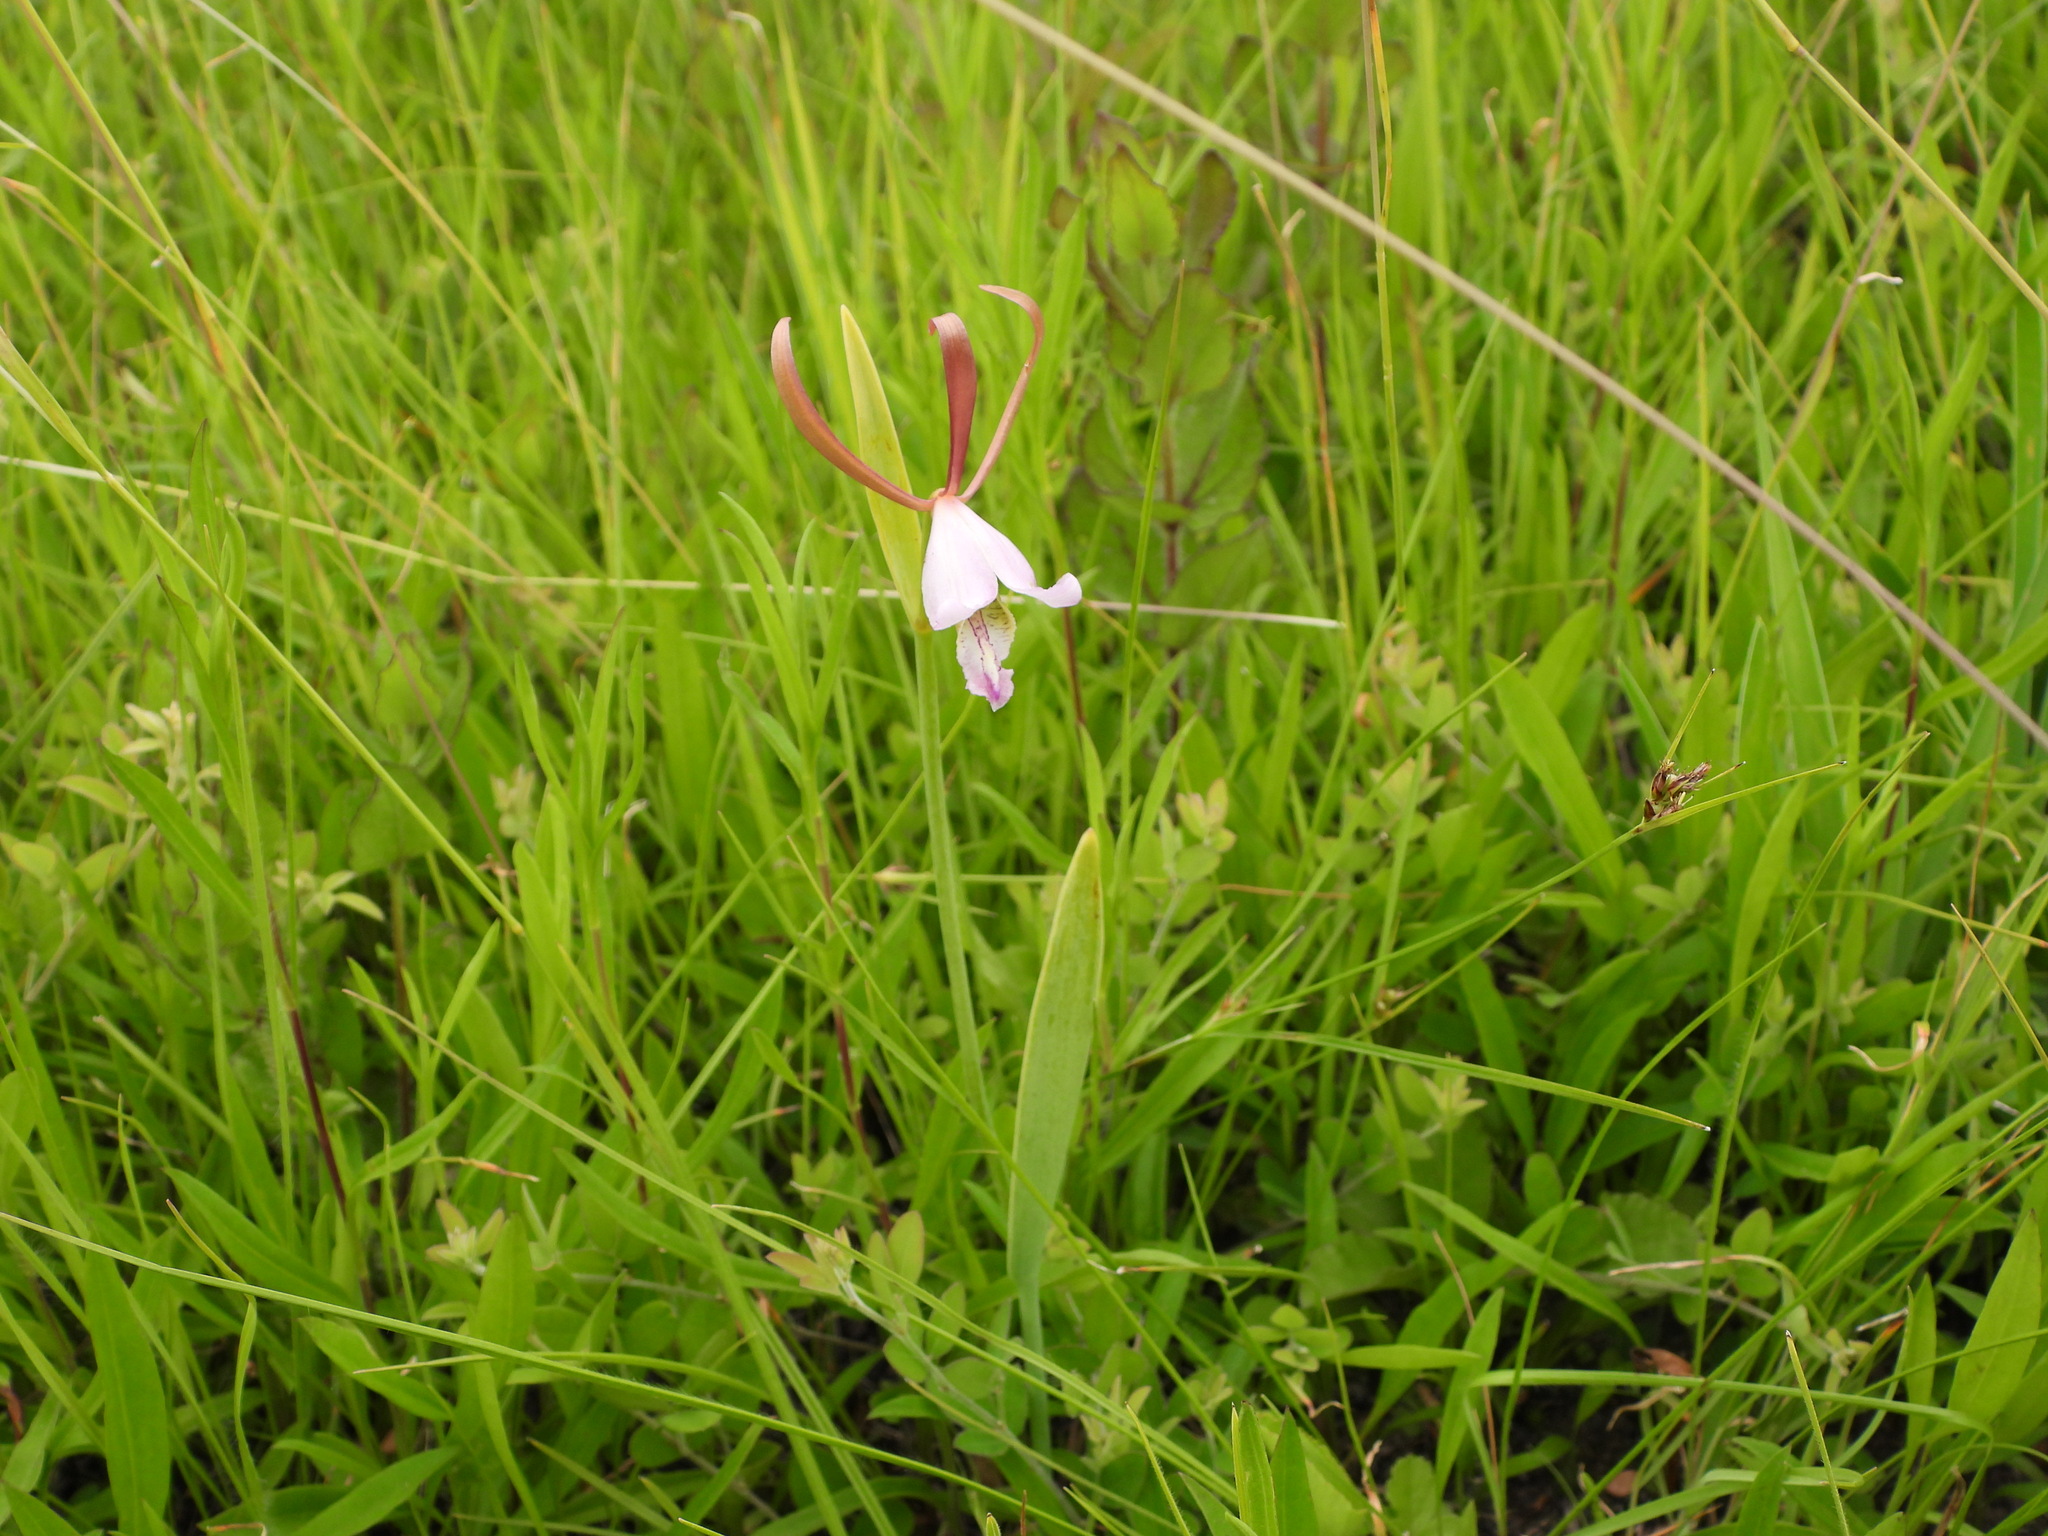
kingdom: Plantae
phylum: Tracheophyta
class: Liliopsida
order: Asparagales
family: Orchidaceae
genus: Cleistesiopsis
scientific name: Cleistesiopsis bifaria
